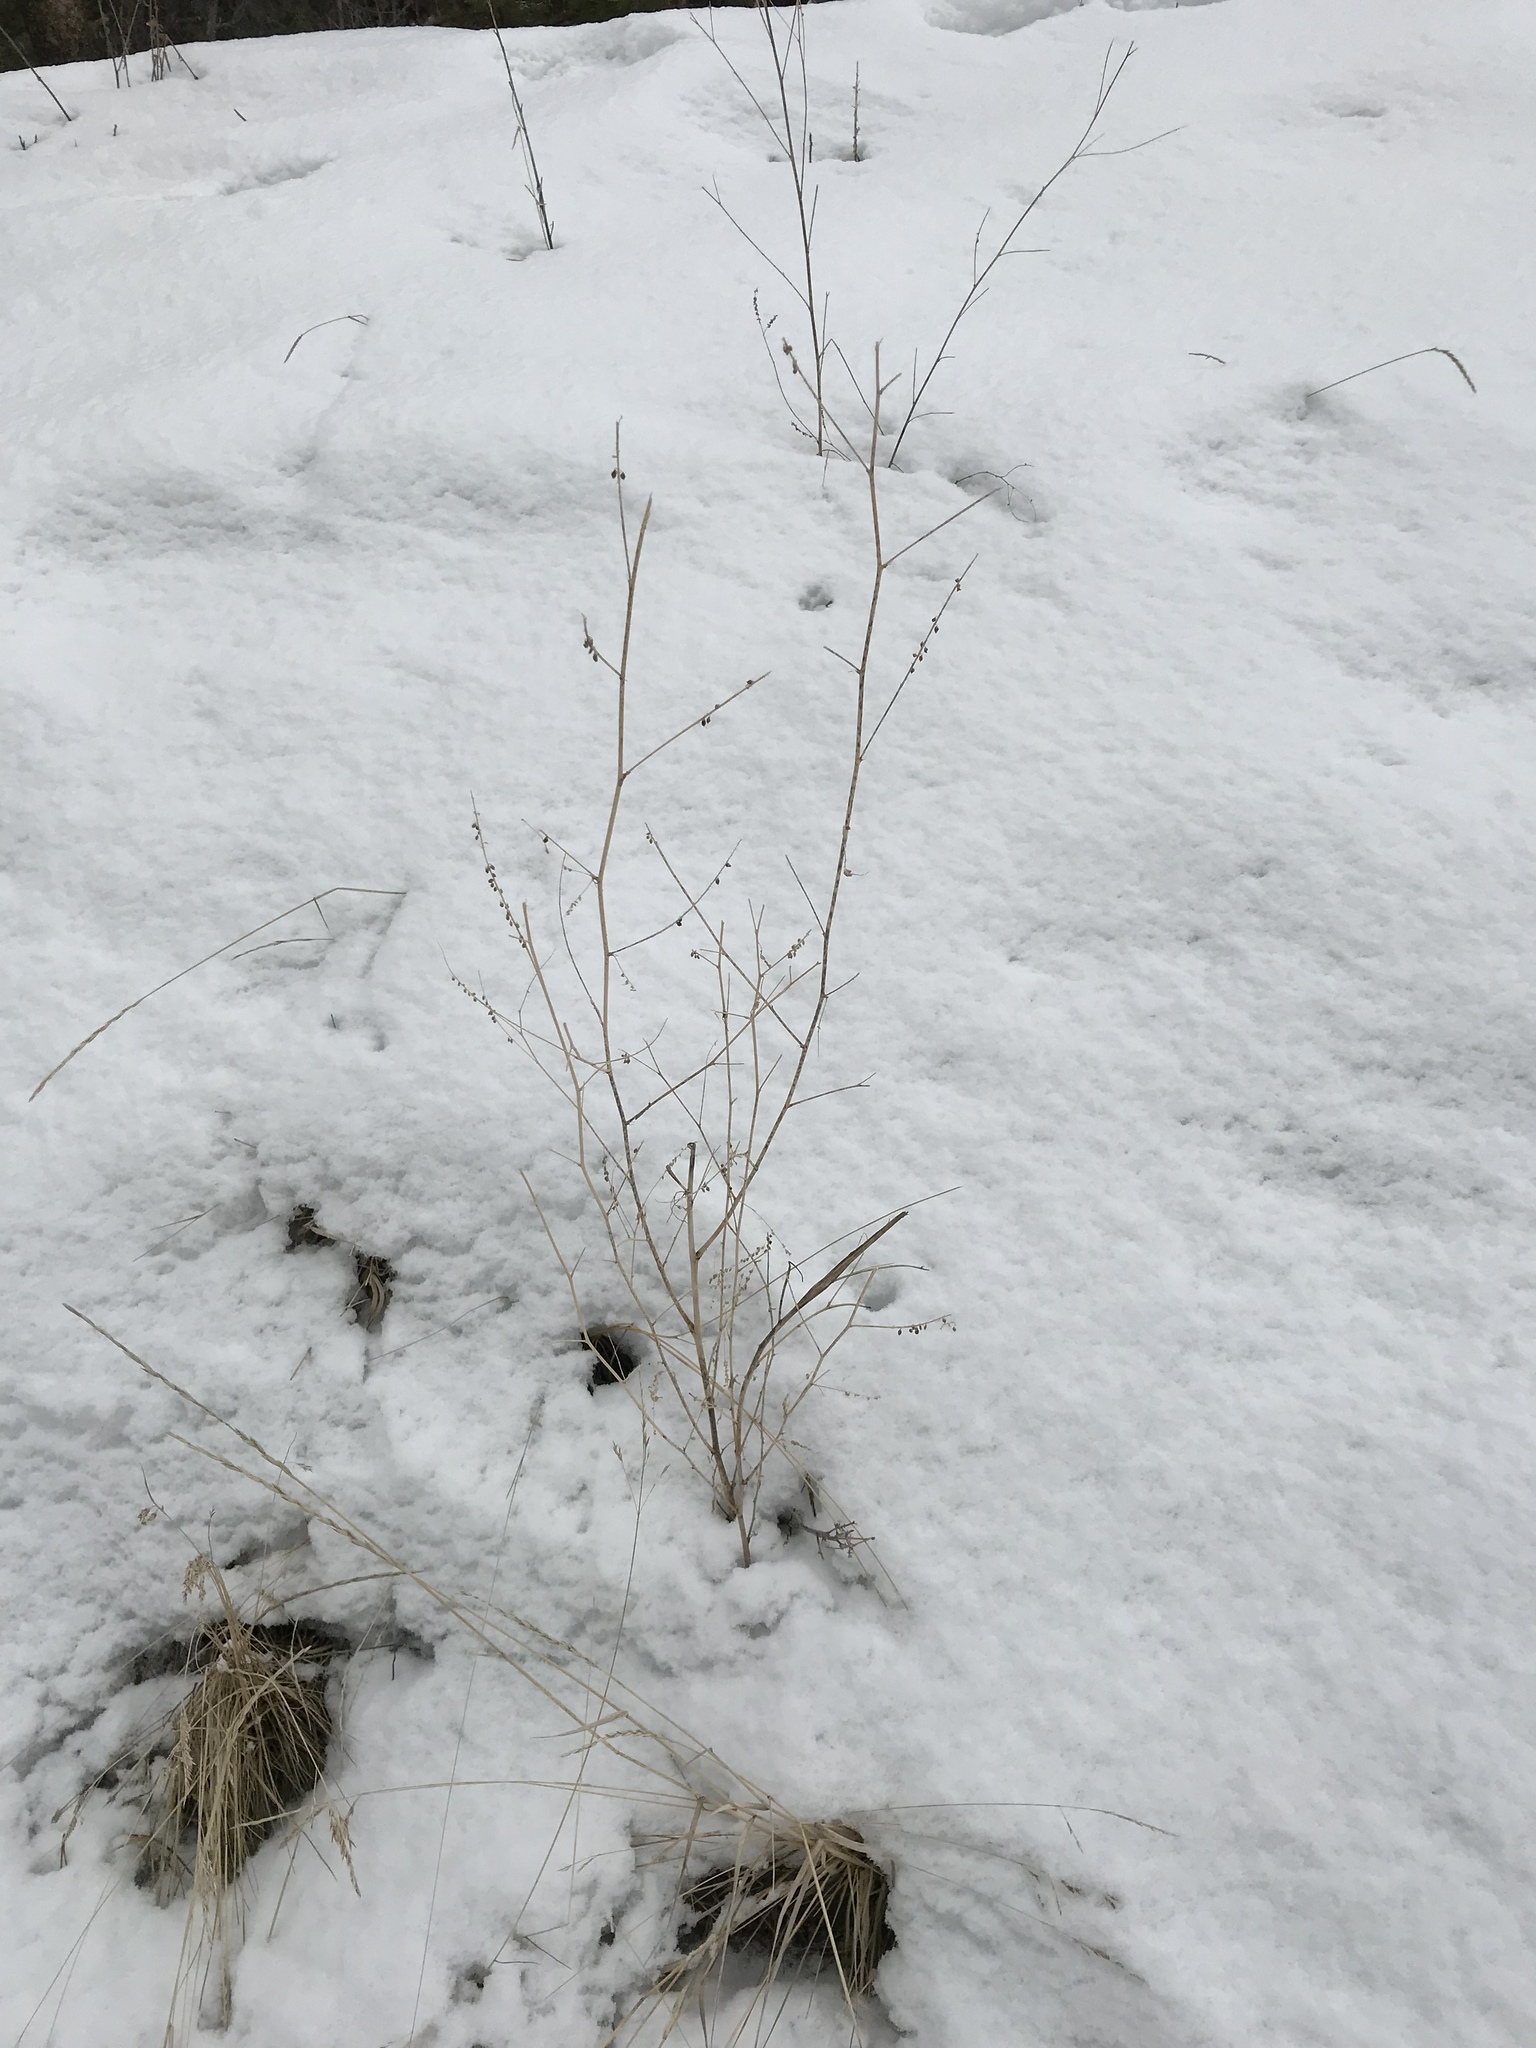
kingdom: Plantae
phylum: Tracheophyta
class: Magnoliopsida
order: Fabales
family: Fabaceae
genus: Melilotus
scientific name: Melilotus
